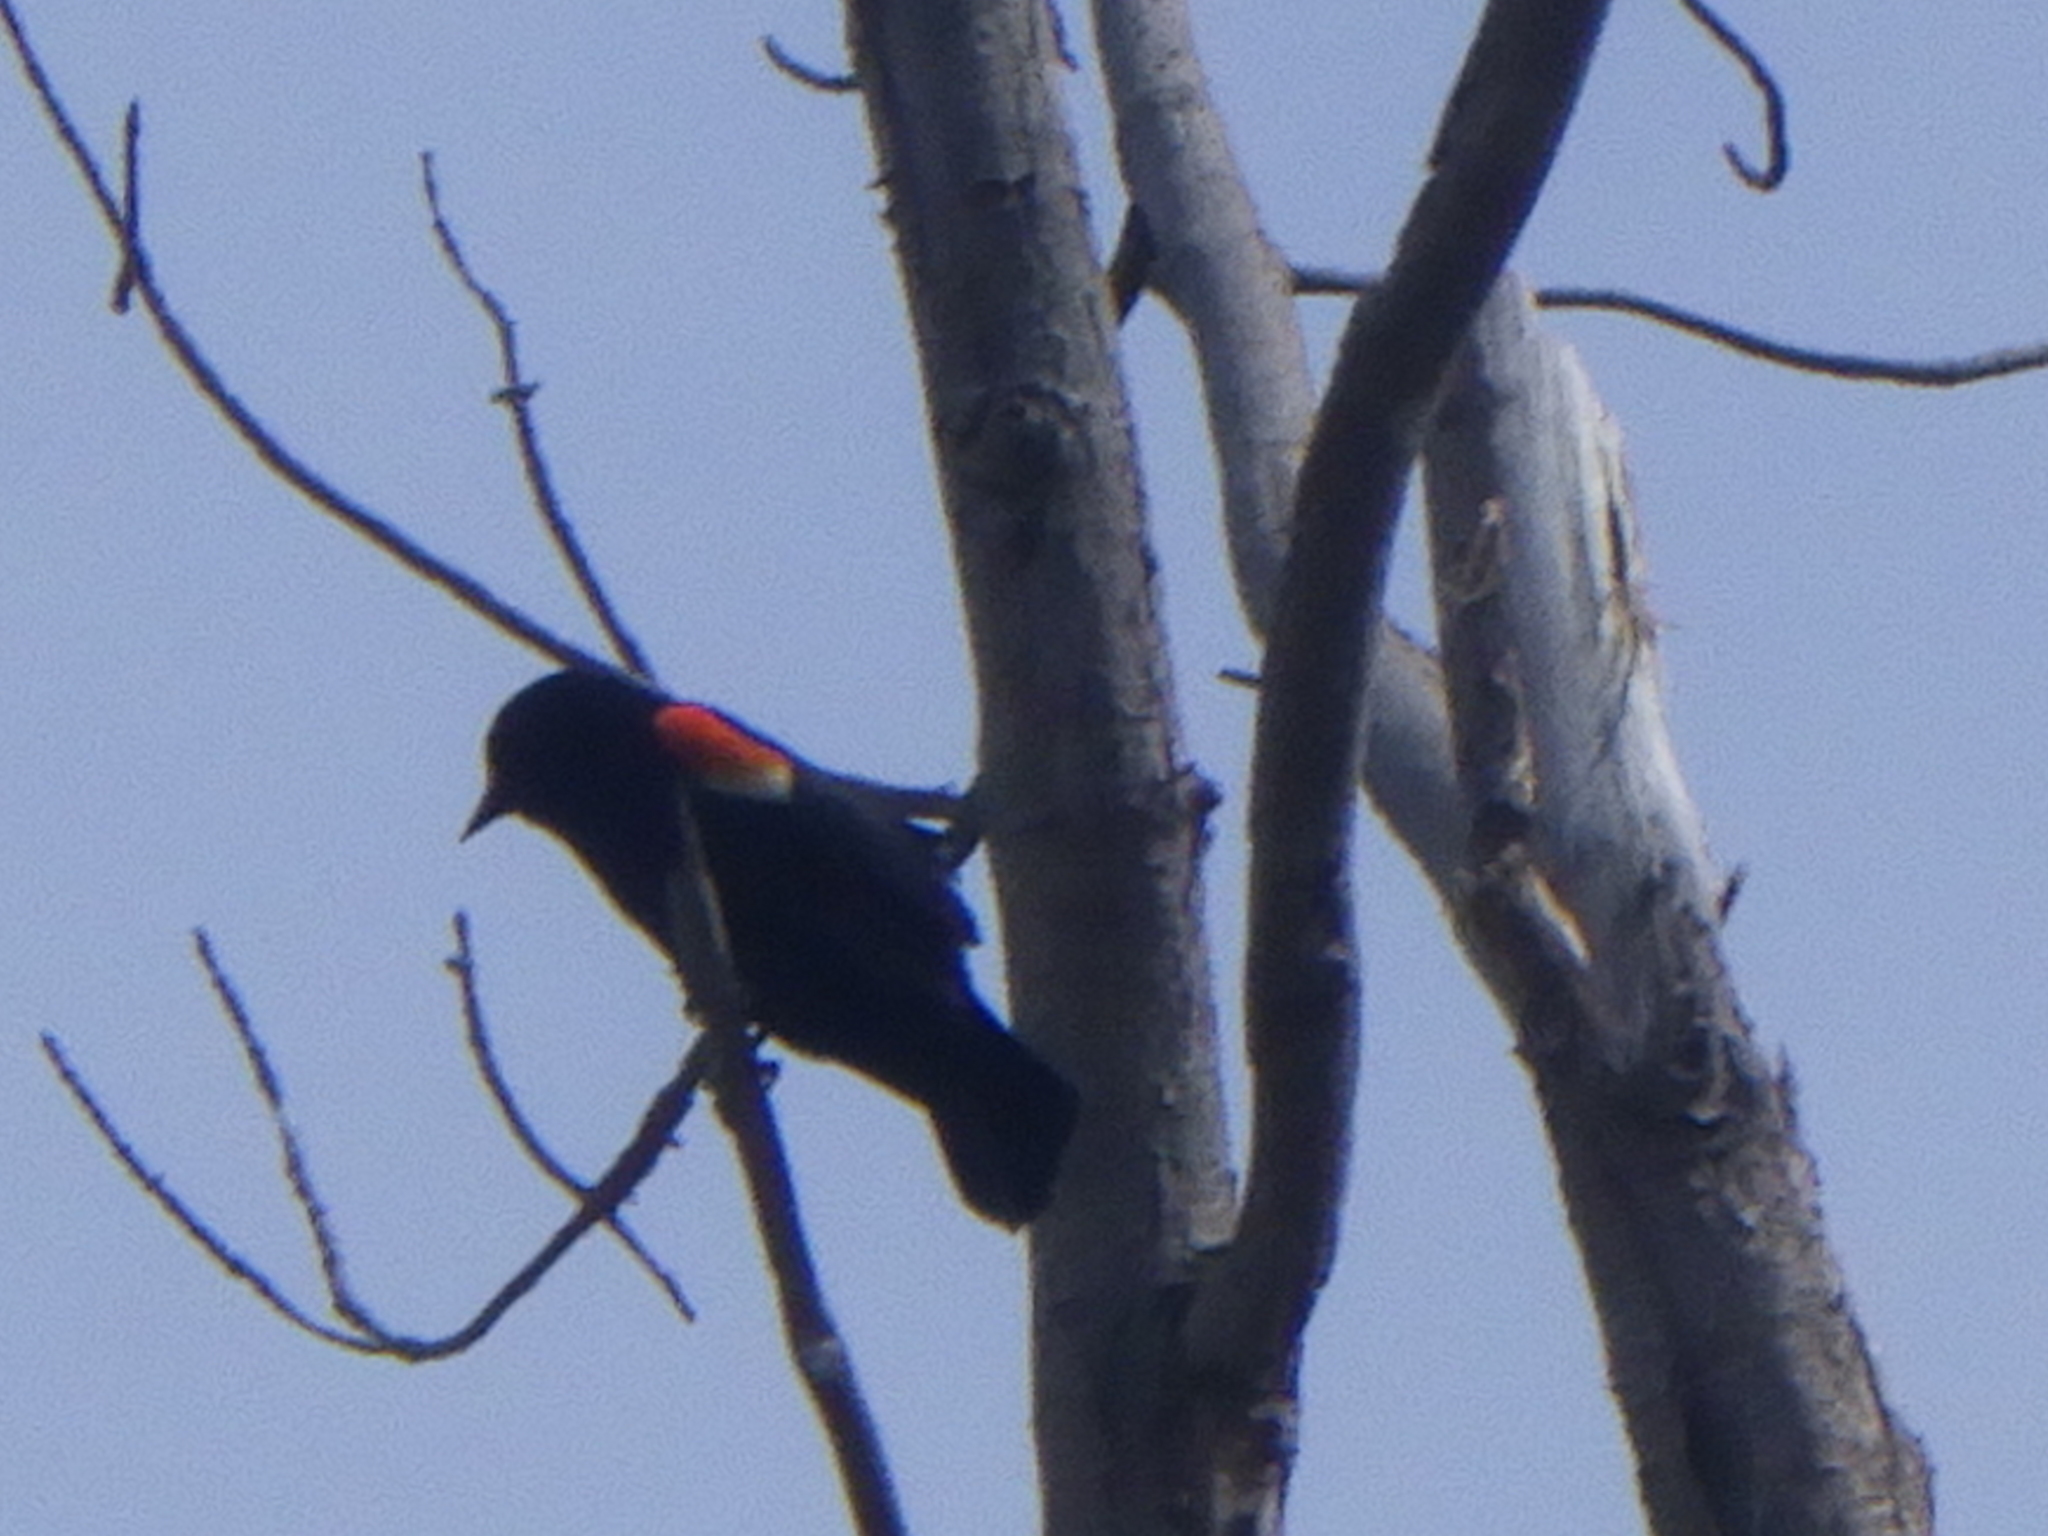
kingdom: Animalia
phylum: Chordata
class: Aves
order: Passeriformes
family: Icteridae
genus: Agelaius
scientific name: Agelaius phoeniceus
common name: Red-winged blackbird
